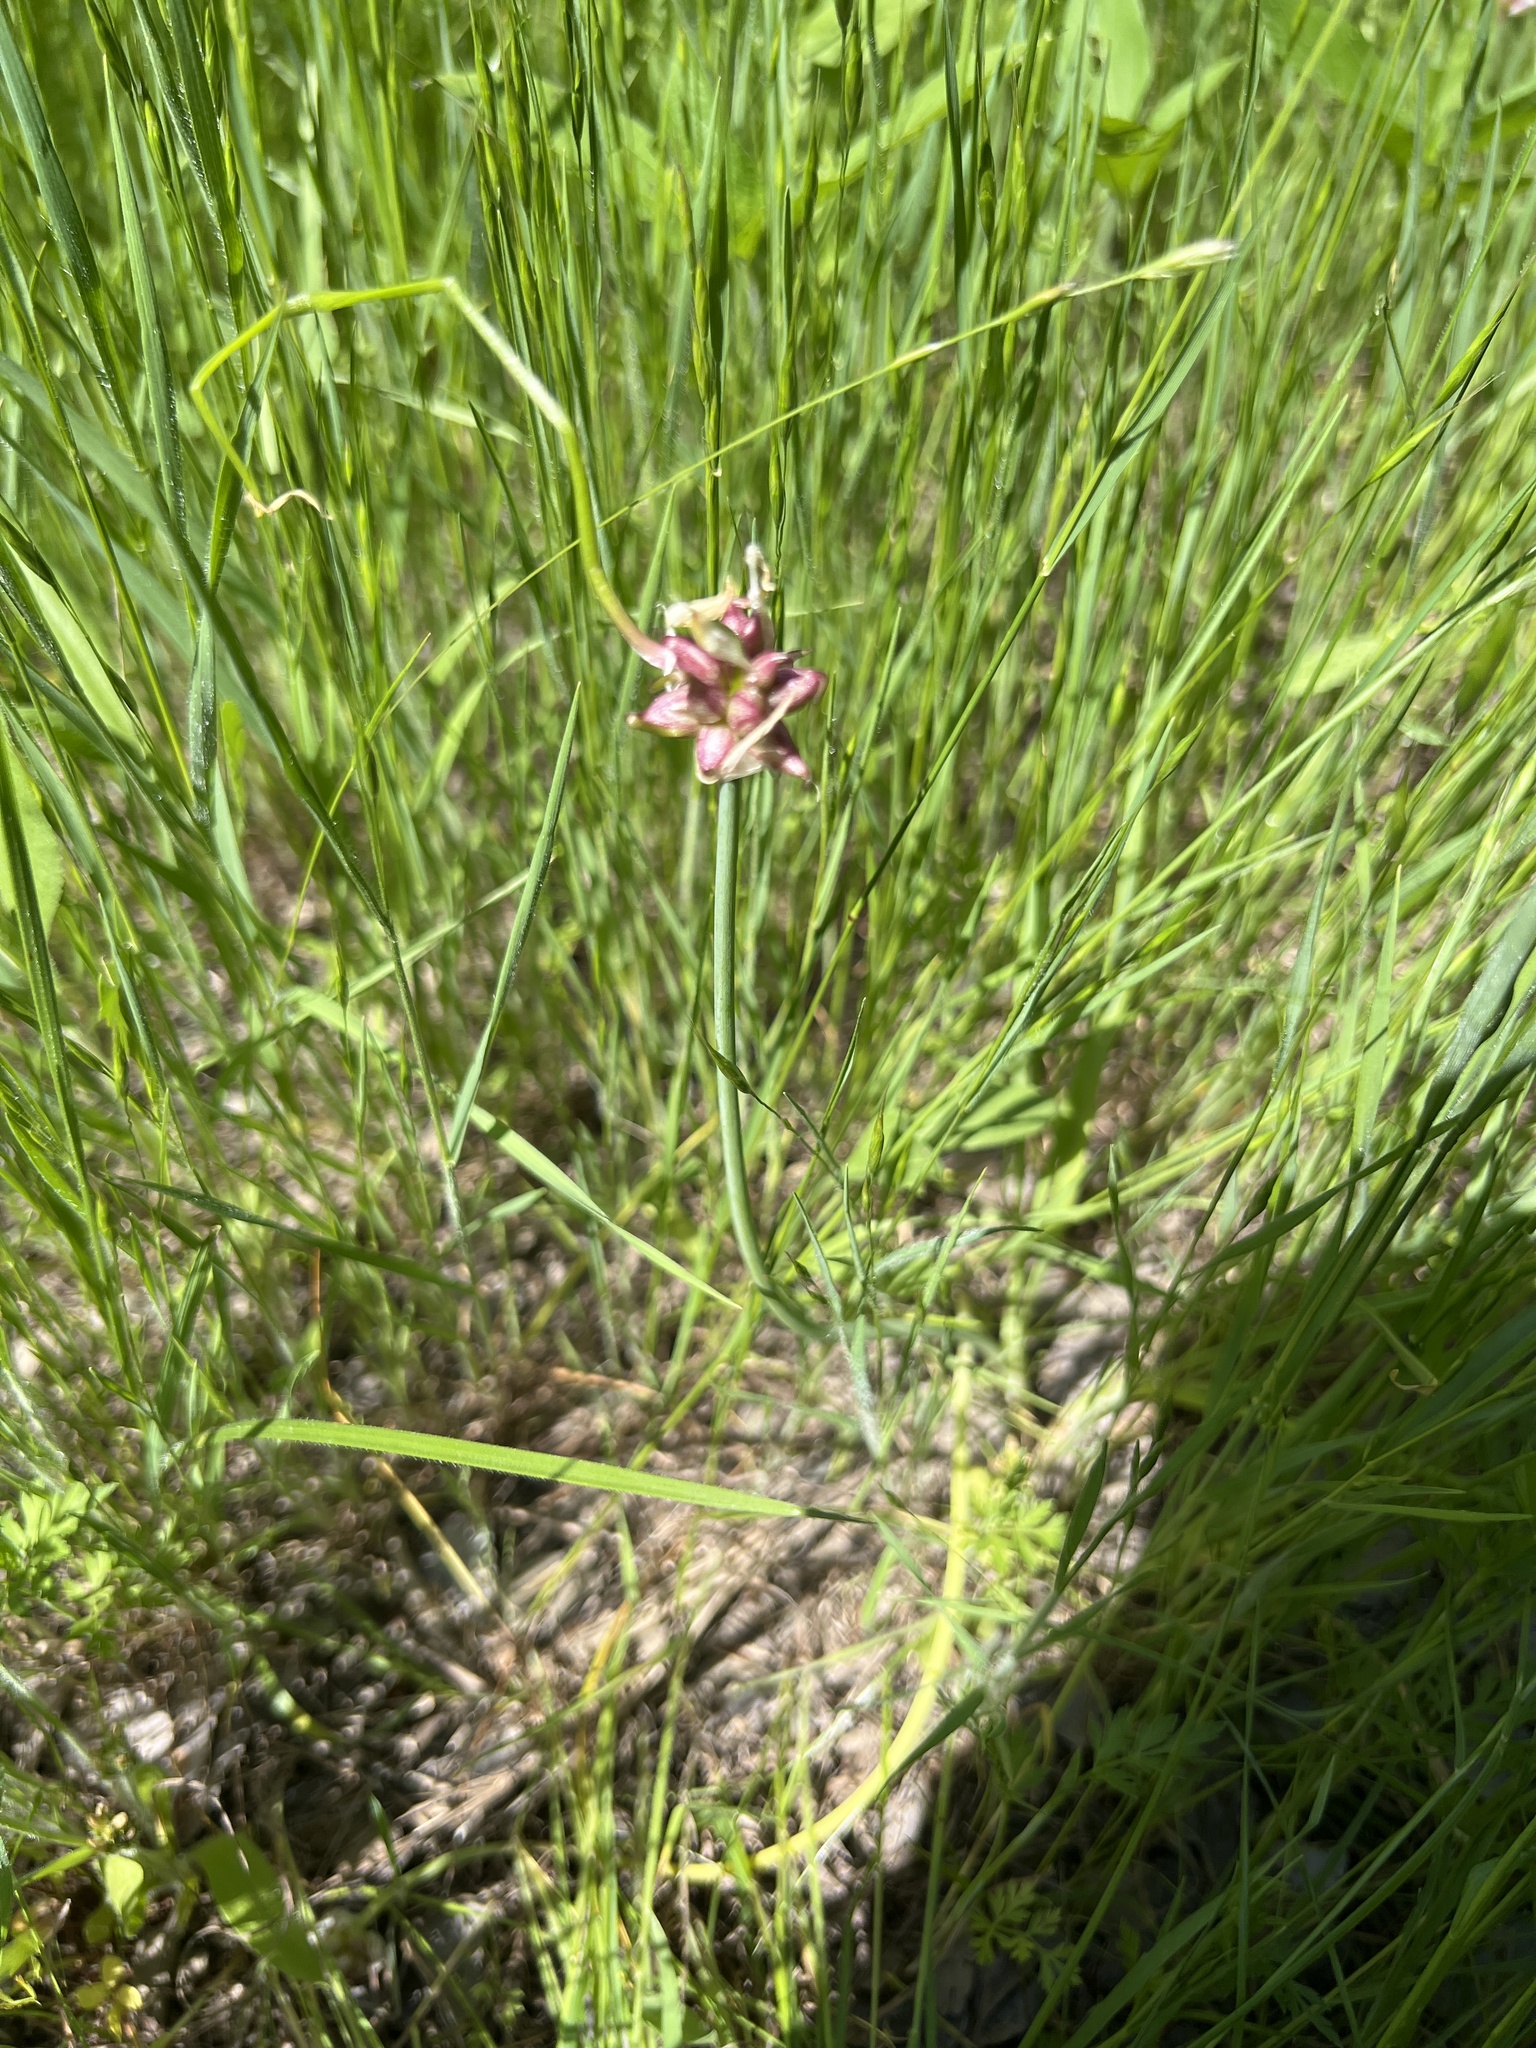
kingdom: Plantae
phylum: Tracheophyta
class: Liliopsida
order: Asparagales
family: Amaryllidaceae
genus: Allium
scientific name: Allium canadense
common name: Meadow garlic
